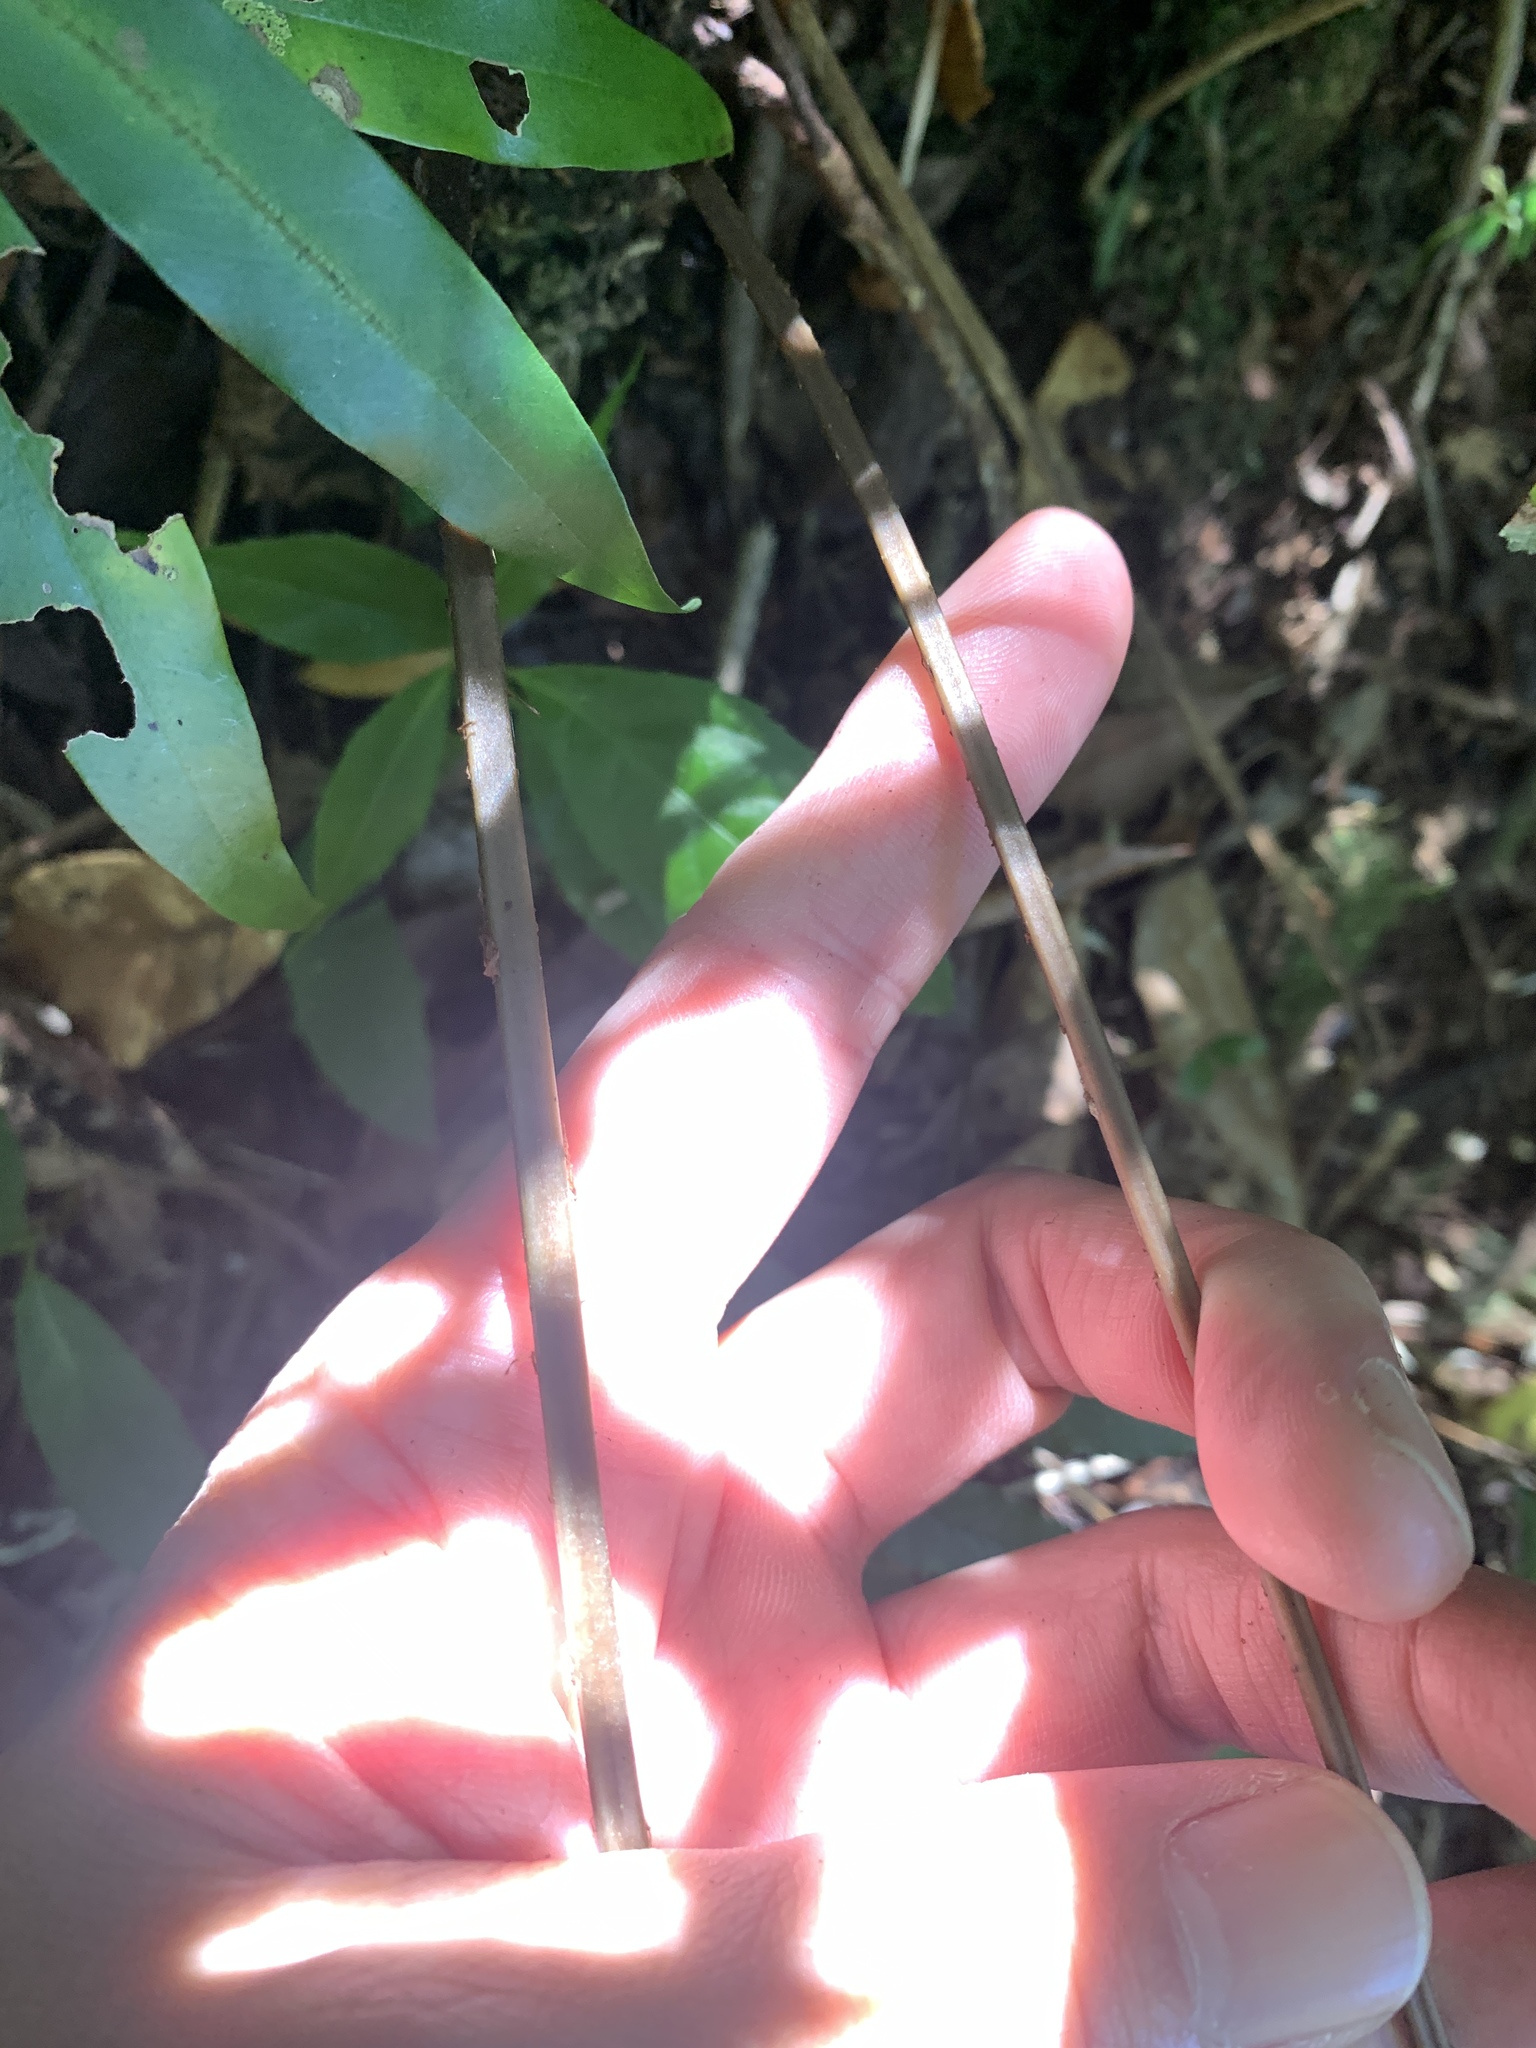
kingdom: Plantae
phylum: Tracheophyta
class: Polypodiopsida
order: Polypodiales
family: Athyriaceae
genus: Athyrium
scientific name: Athyrium clivicola
